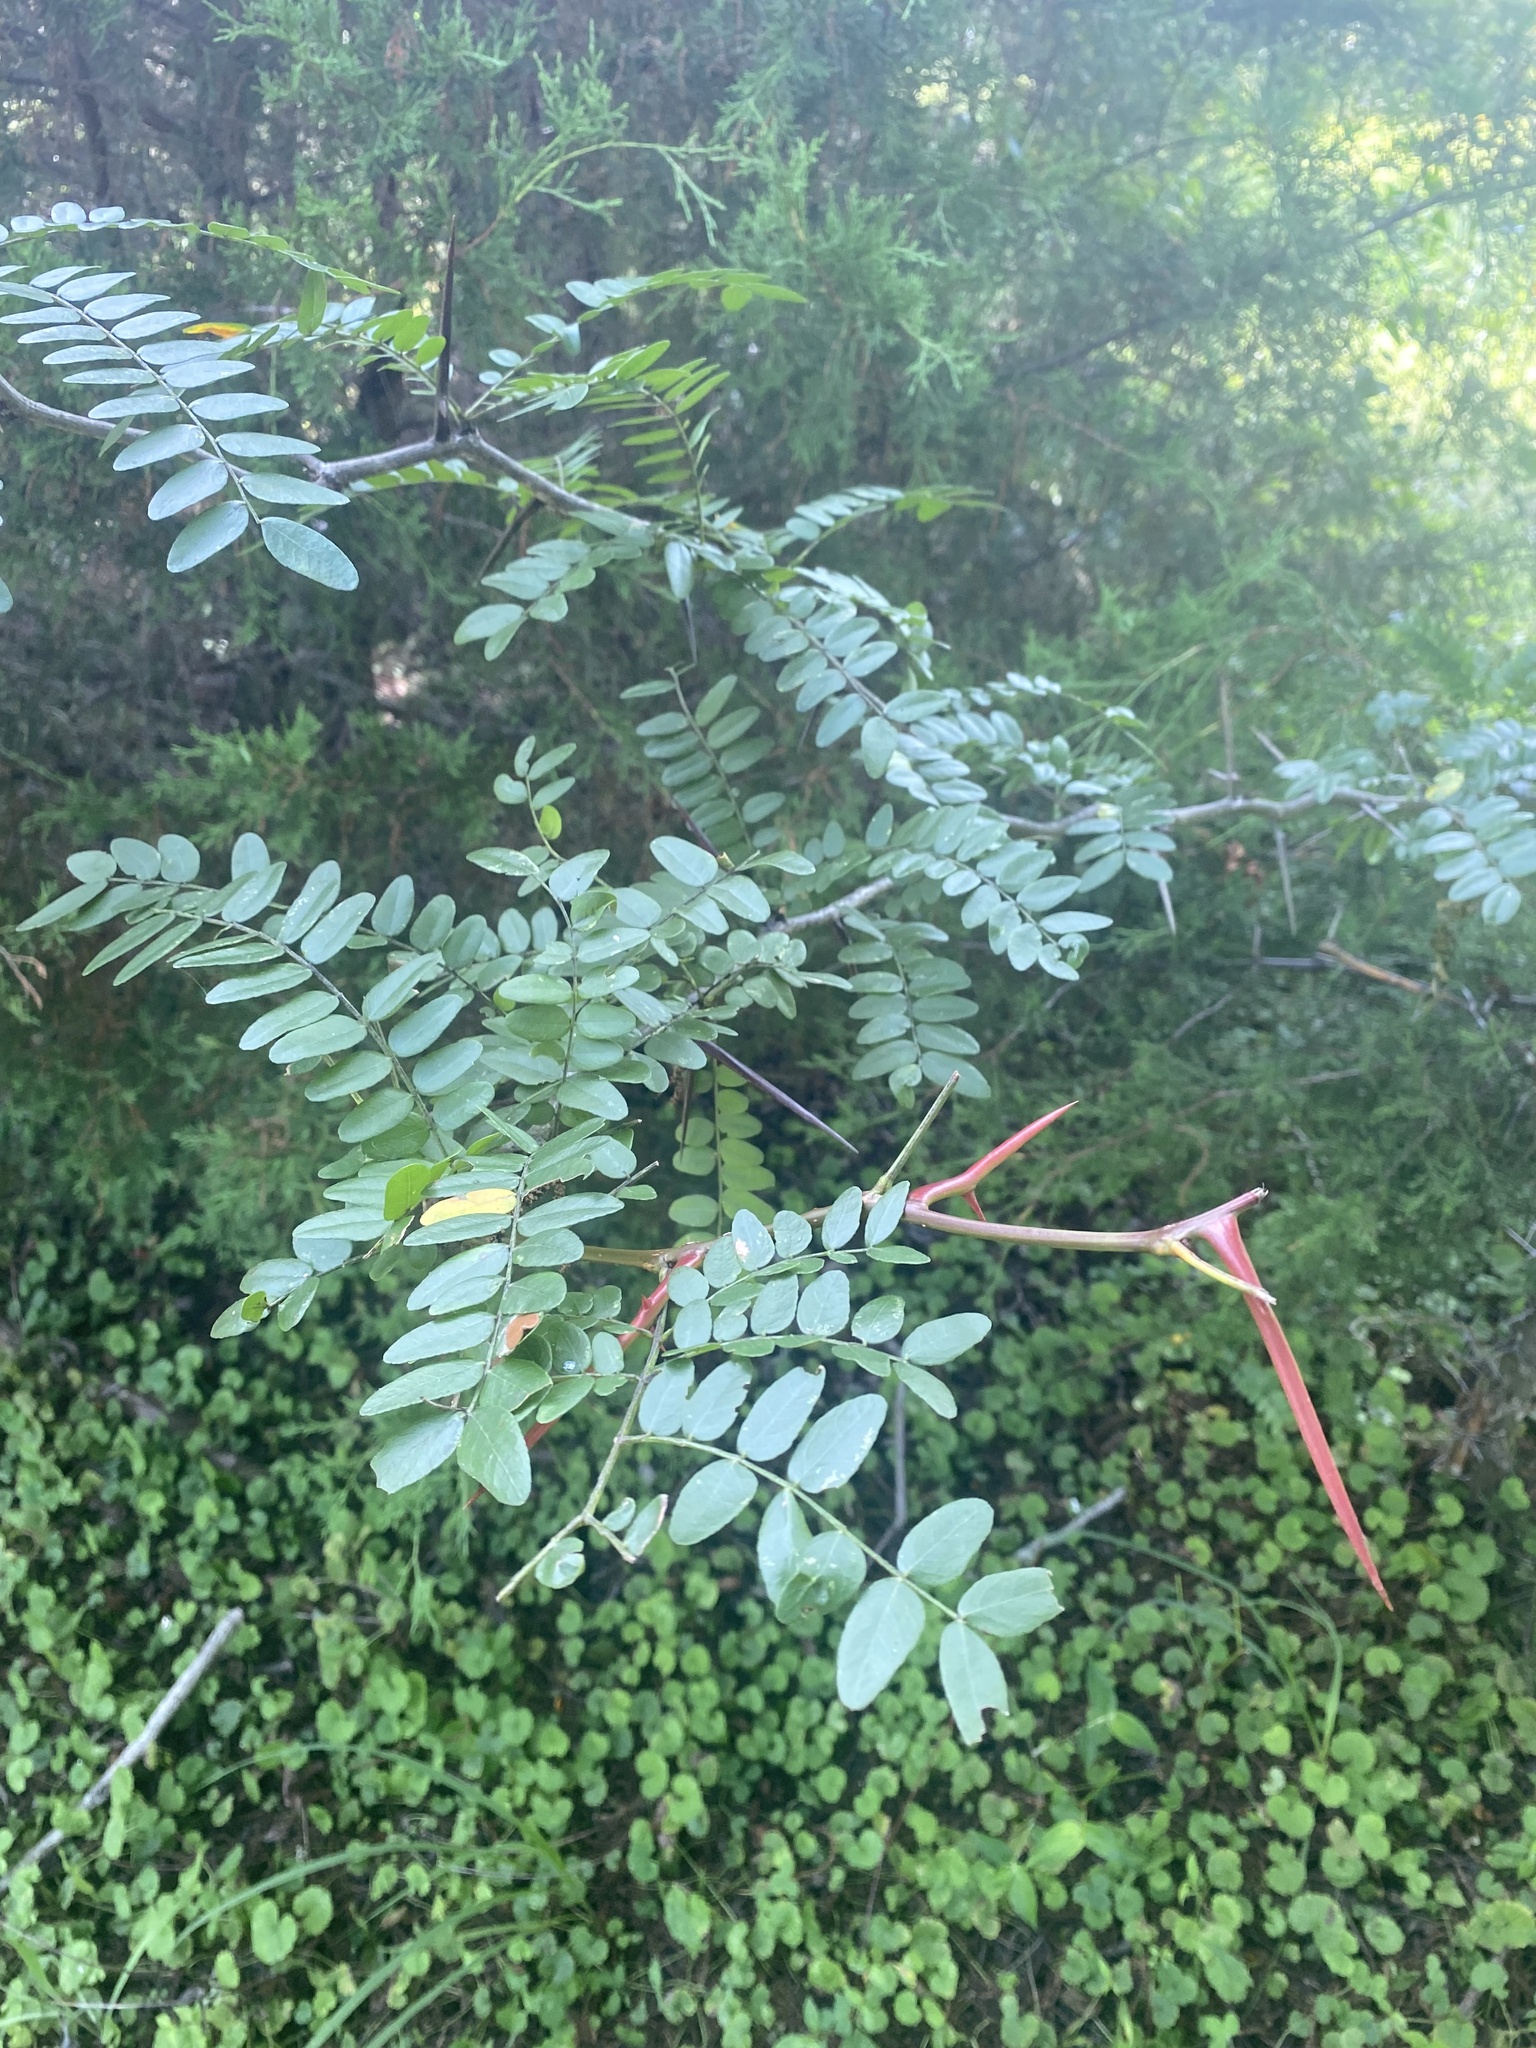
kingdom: Plantae
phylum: Tracheophyta
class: Magnoliopsida
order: Fabales
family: Fabaceae
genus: Gleditsia
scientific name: Gleditsia triacanthos
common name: Common honeylocust
